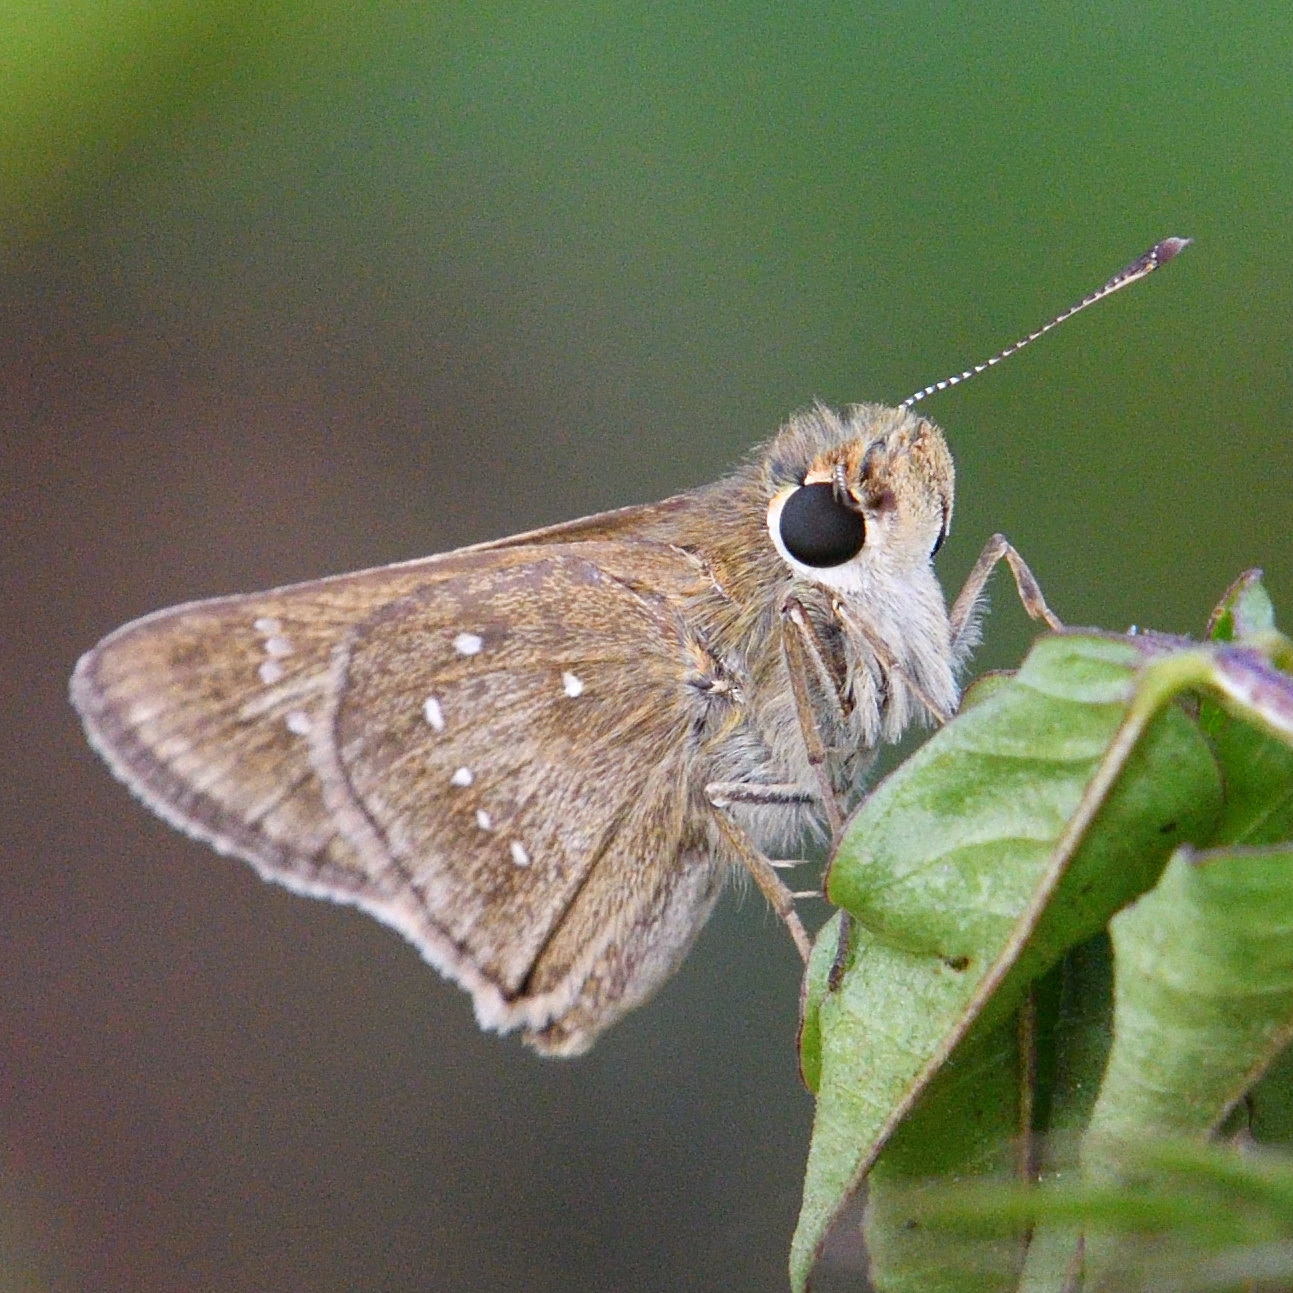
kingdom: Animalia
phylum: Arthropoda
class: Insecta
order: Lepidoptera
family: Hesperiidae
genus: Pelopidas
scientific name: Pelopidas mathias
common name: Black-branded swift
